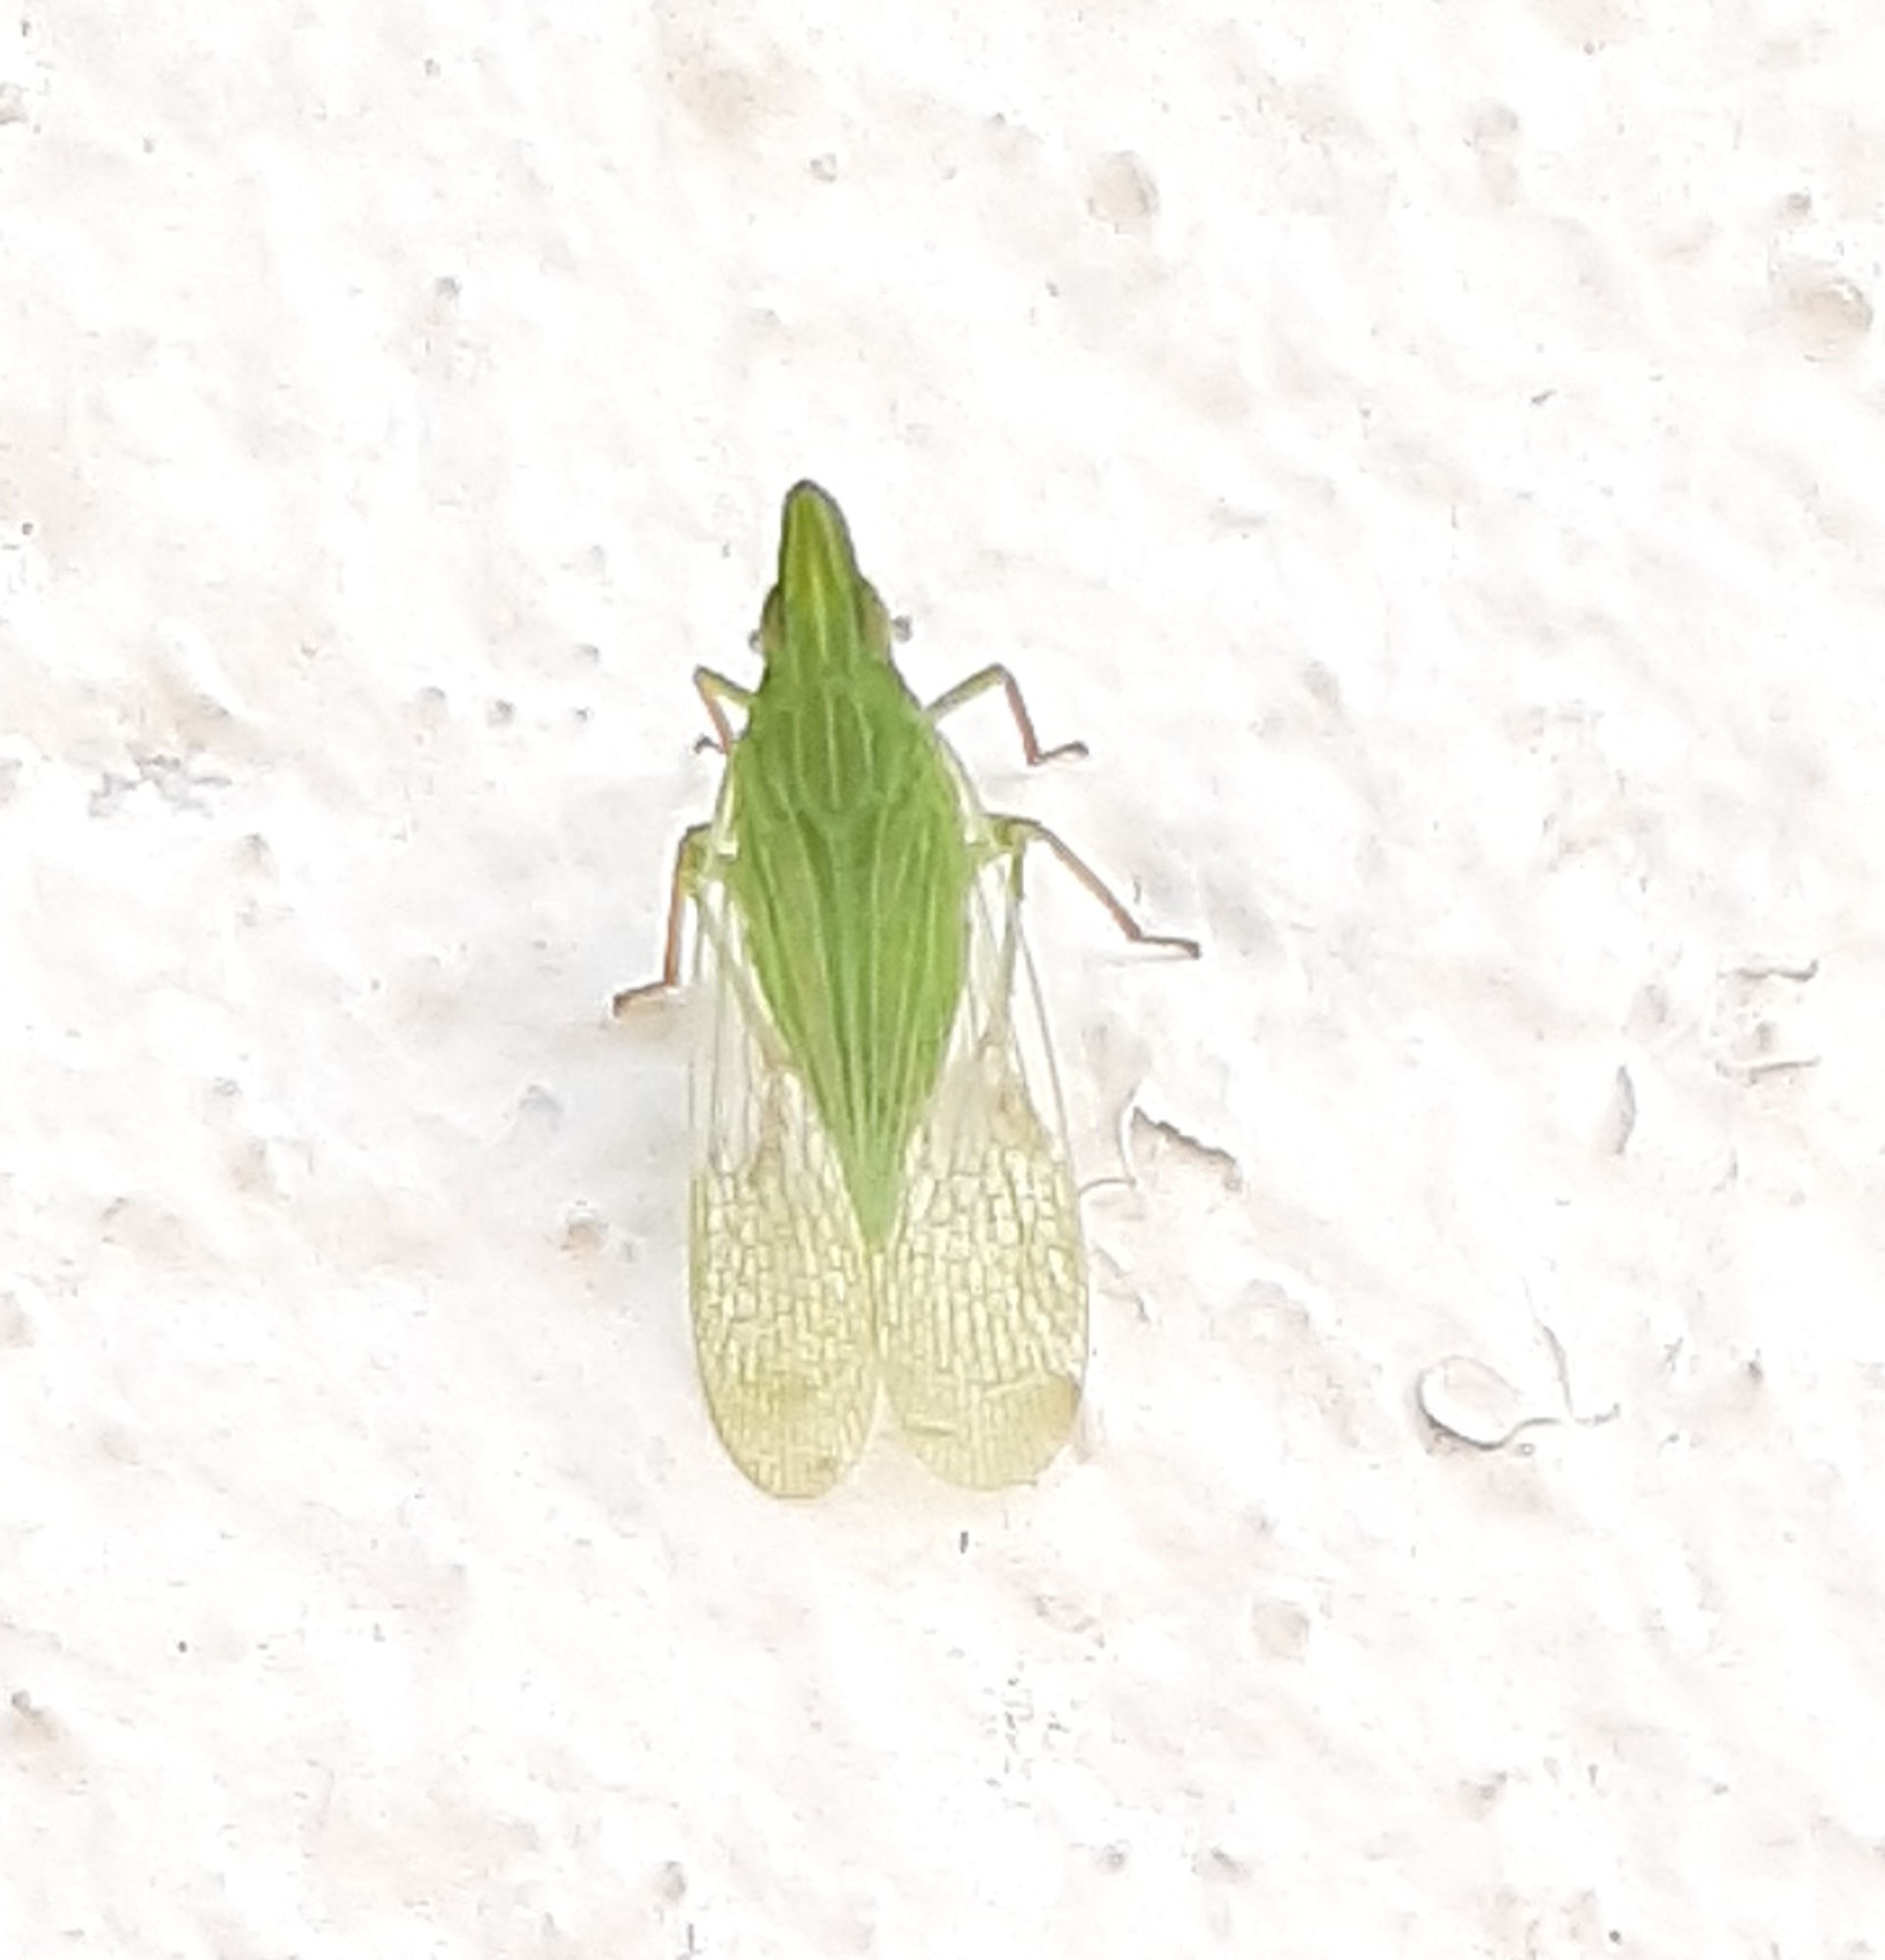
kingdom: Animalia
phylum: Arthropoda
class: Insecta
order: Hemiptera
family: Dictyopharidae
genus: Rhynchomitra
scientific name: Rhynchomitra recurva
